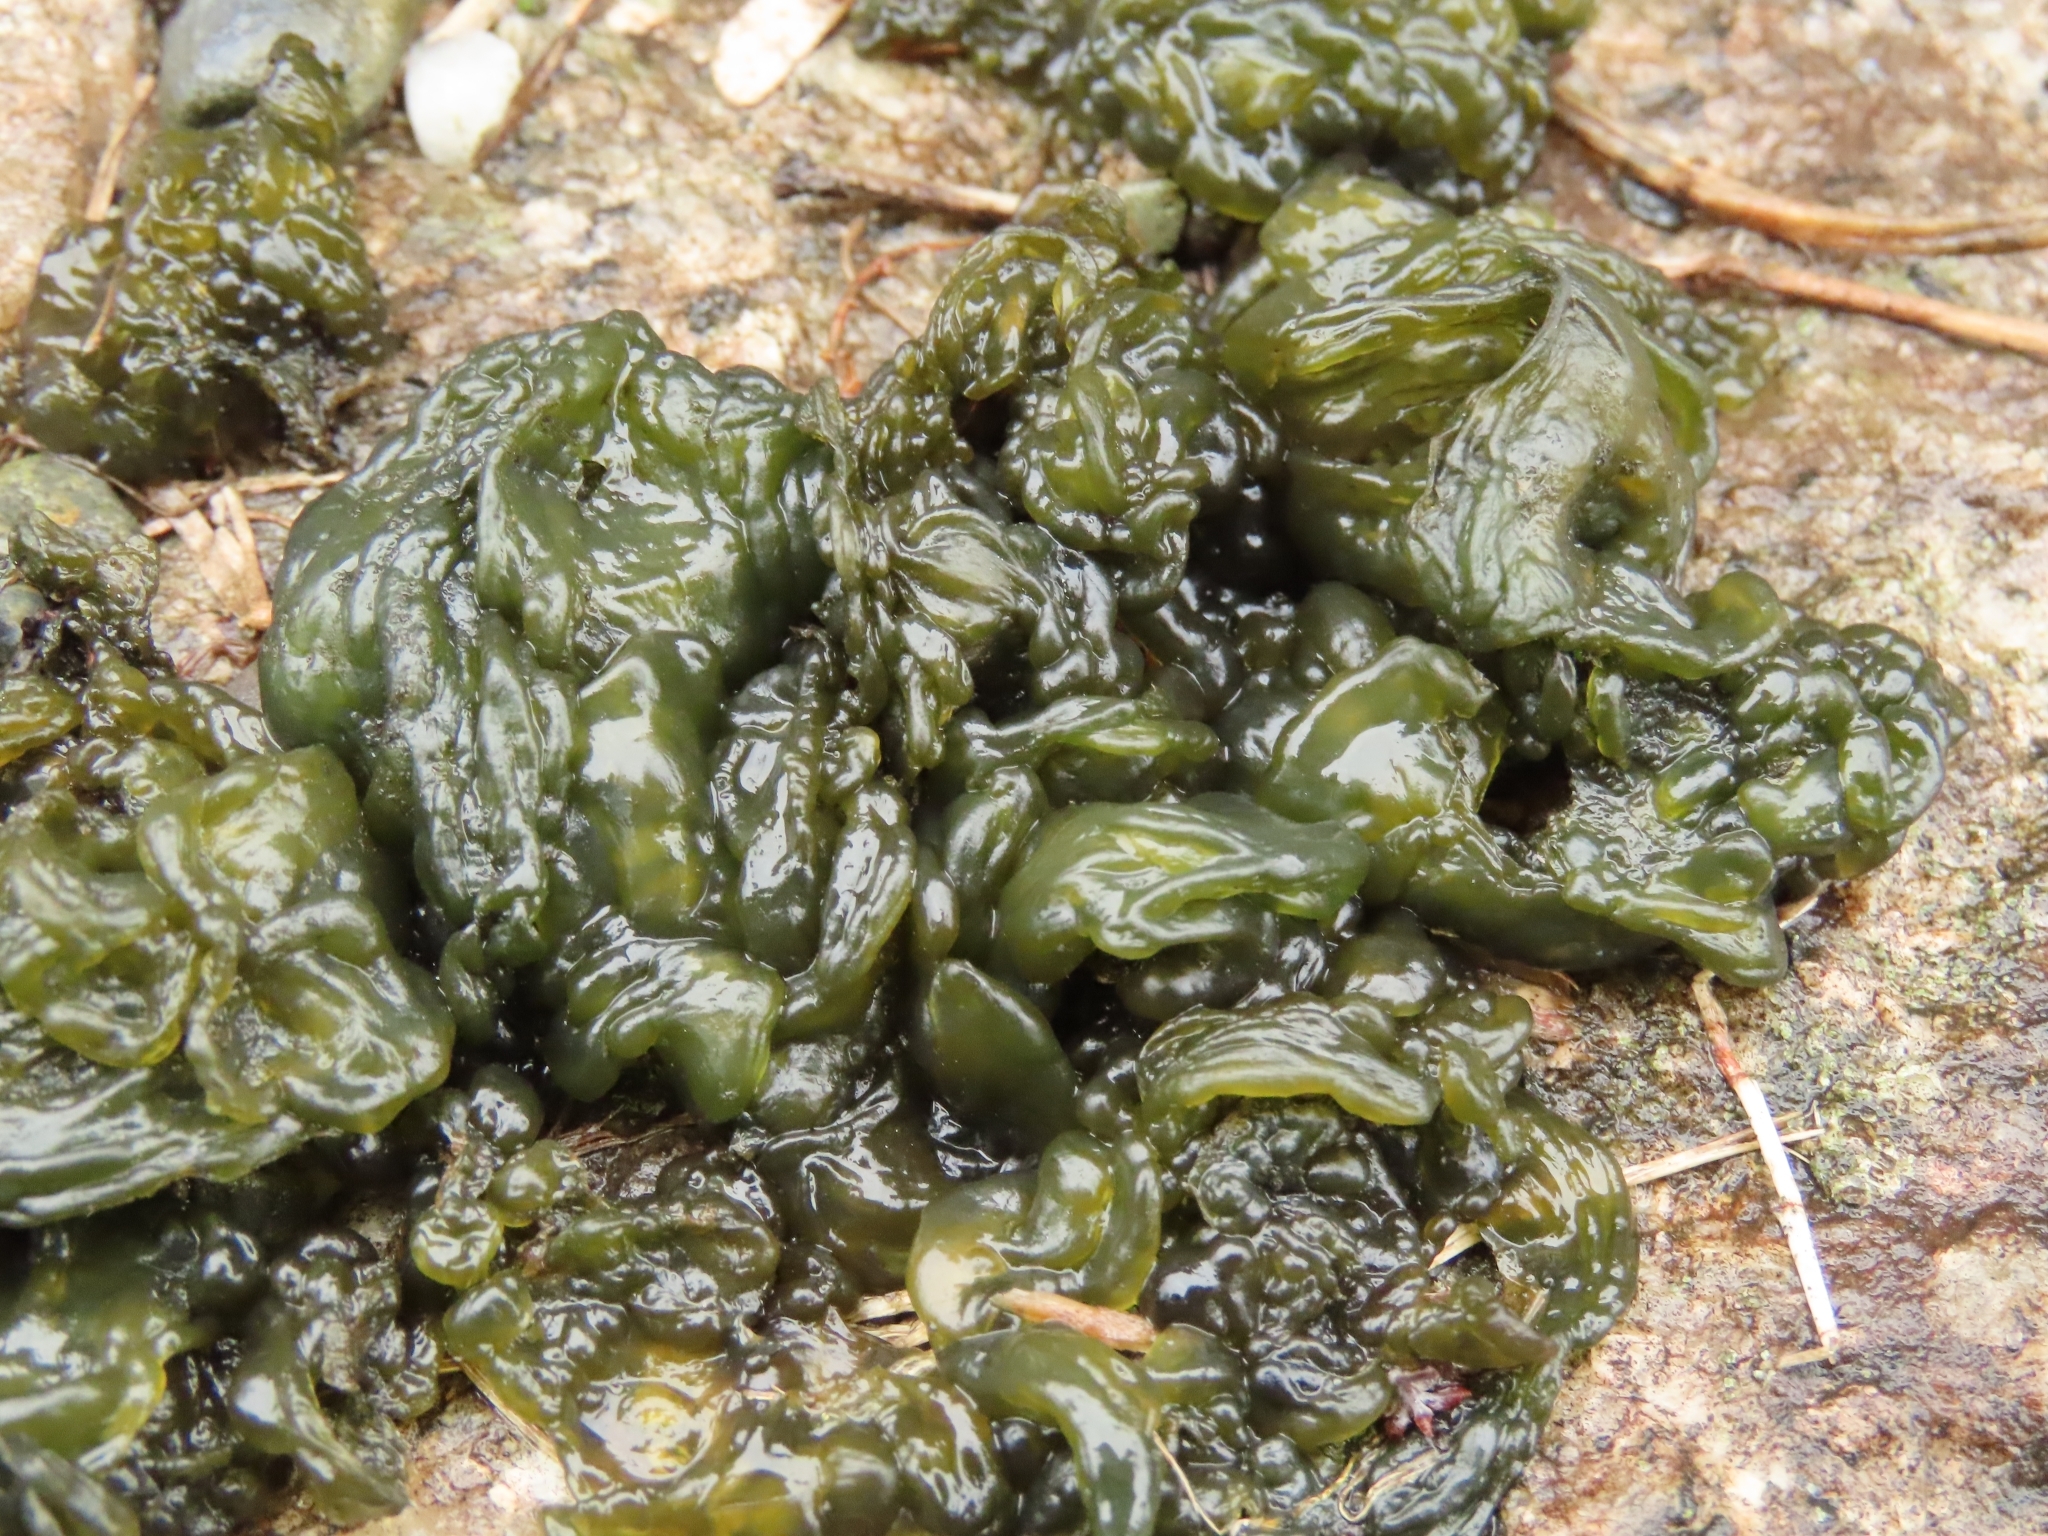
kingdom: Bacteria
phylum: Cyanobacteria
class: Cyanobacteriia
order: Cyanobacteriales
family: Nostocaceae
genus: Nostoc
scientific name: Nostoc commune
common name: Star jelly
